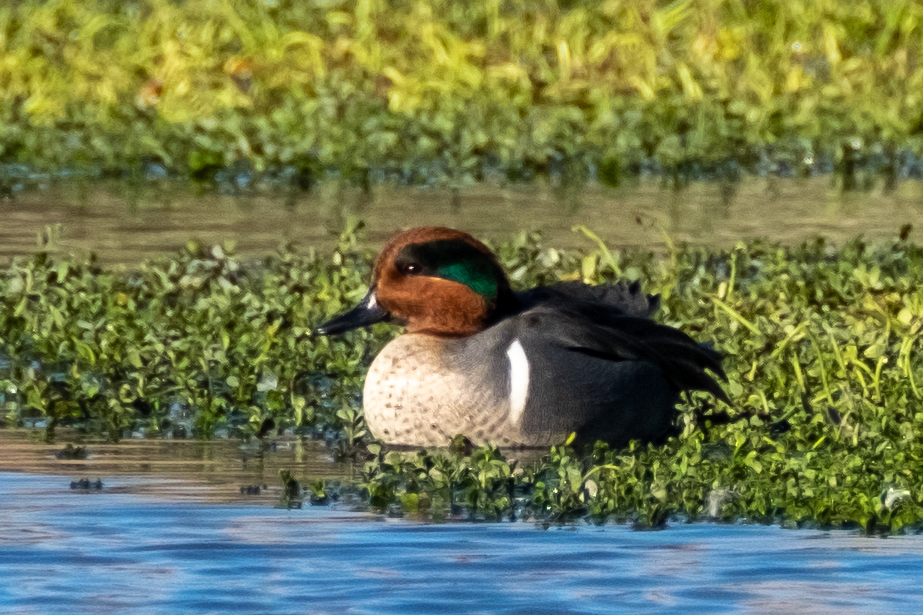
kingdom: Animalia
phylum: Chordata
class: Aves
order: Anseriformes
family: Anatidae
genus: Anas
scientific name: Anas crecca
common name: Eurasian teal
